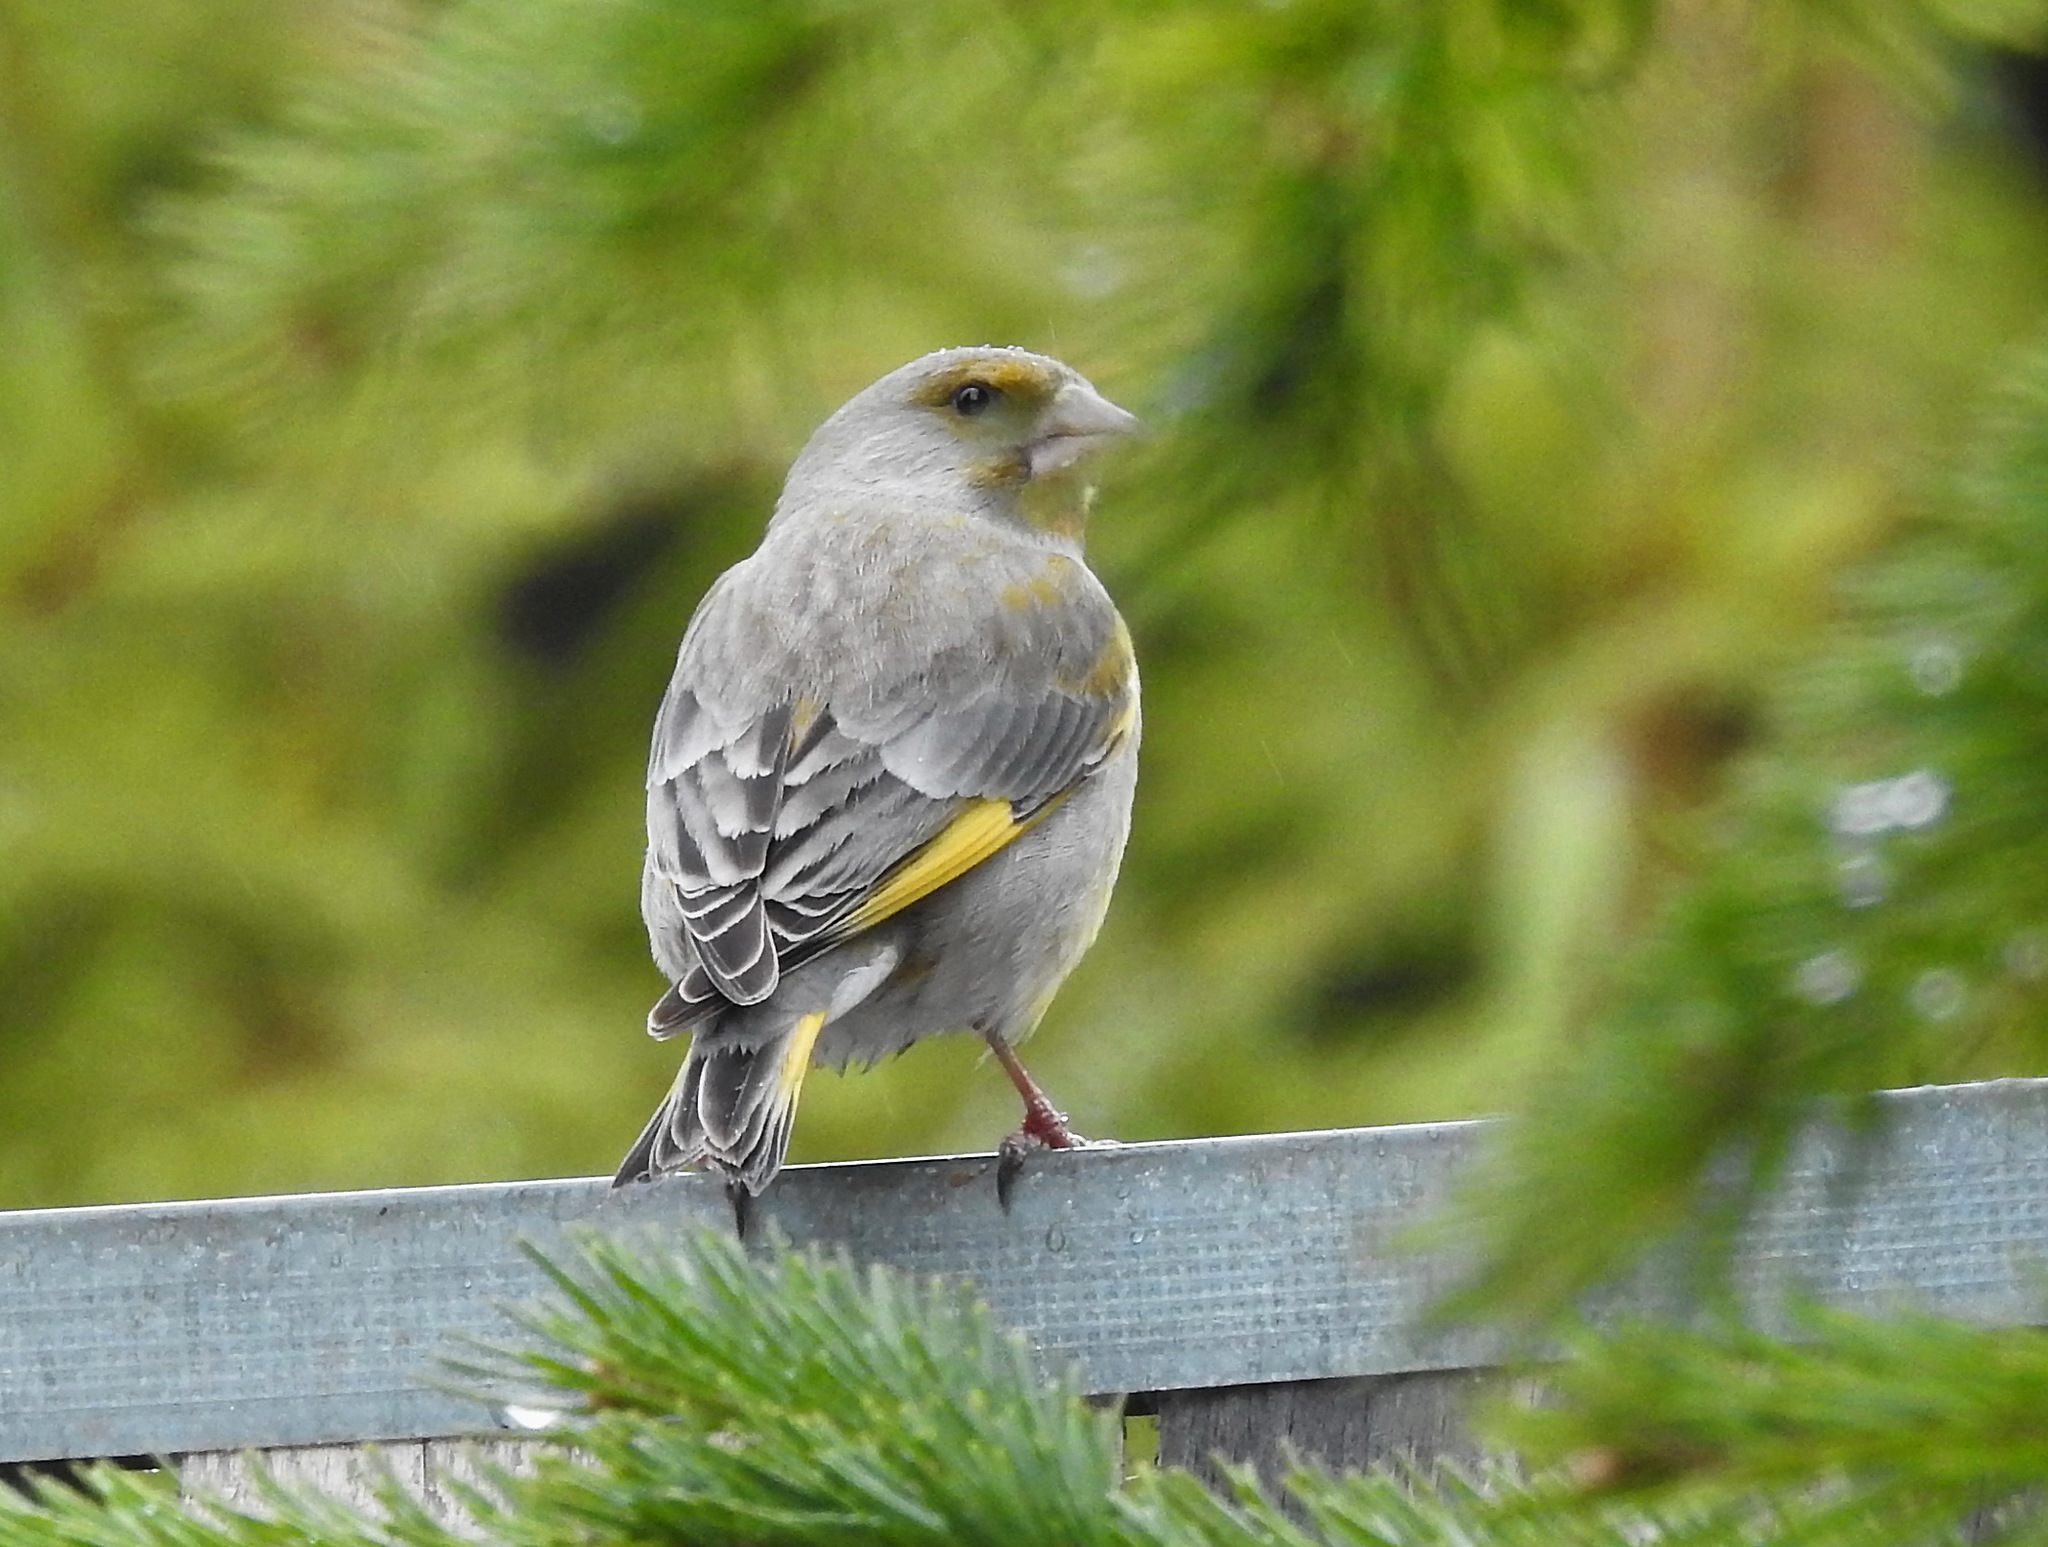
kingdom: Plantae
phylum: Tracheophyta
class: Liliopsida
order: Poales
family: Poaceae
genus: Chloris
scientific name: Chloris chloris
